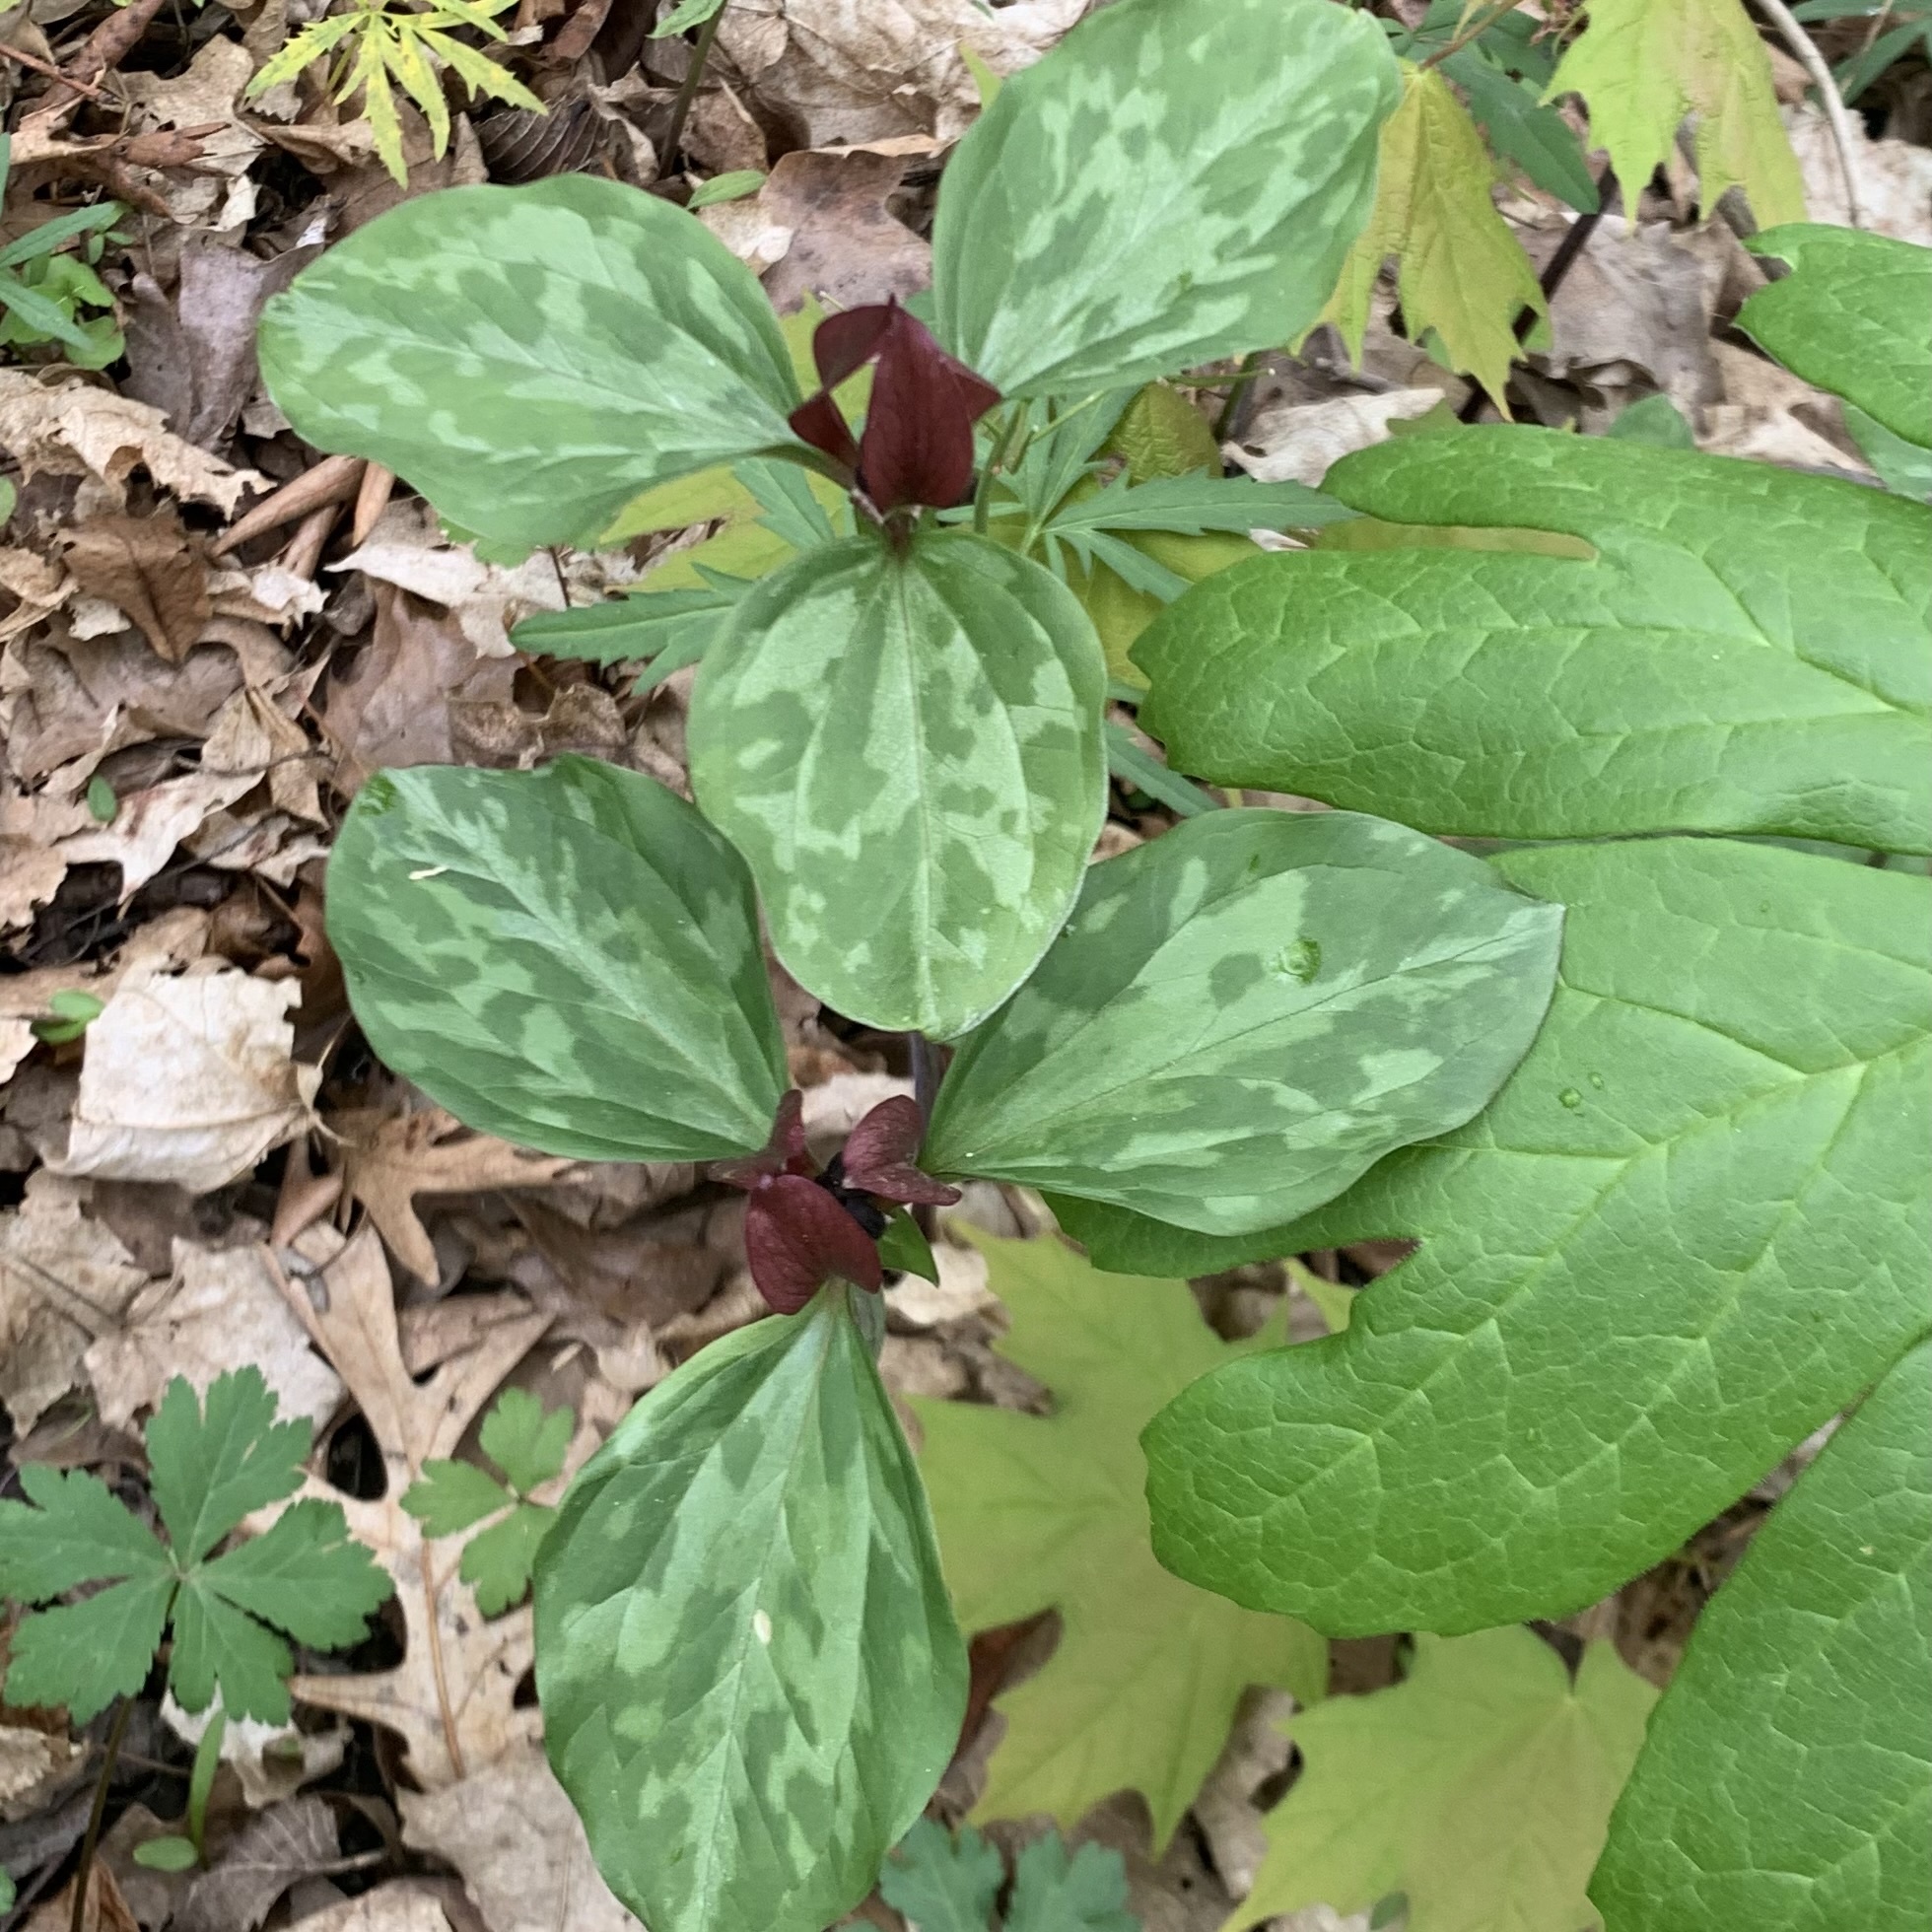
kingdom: Plantae
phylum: Tracheophyta
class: Liliopsida
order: Liliales
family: Melanthiaceae
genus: Trillium
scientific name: Trillium recurvatum
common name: Bloody butcher
